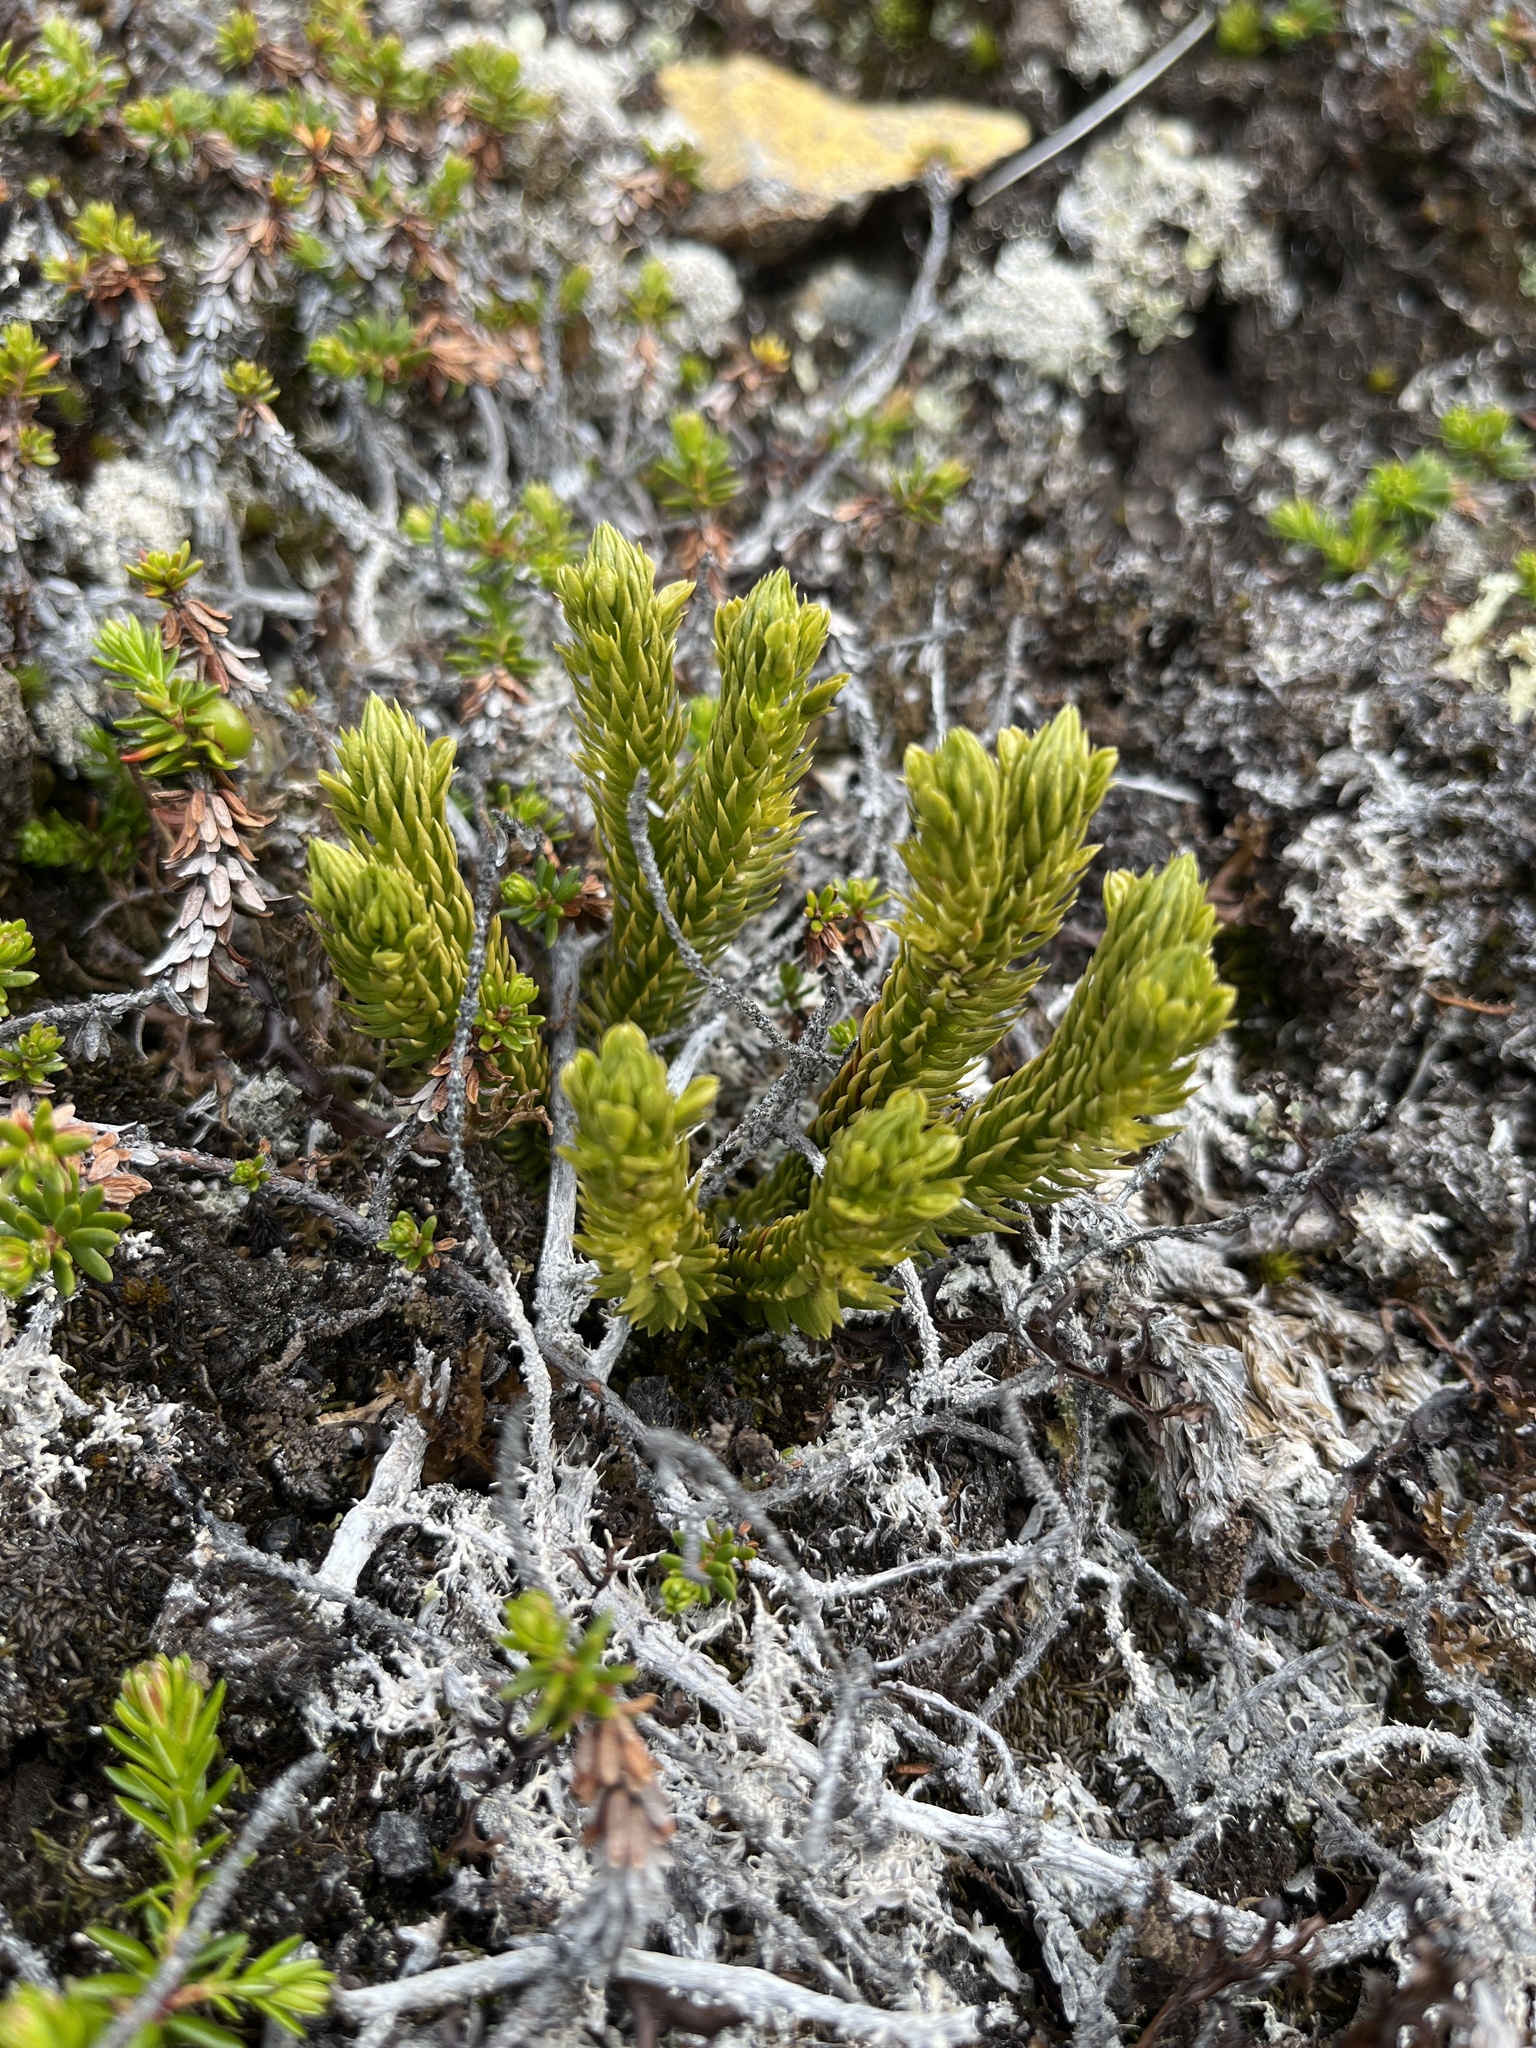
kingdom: Plantae
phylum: Tracheophyta
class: Lycopodiopsida
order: Lycopodiales
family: Lycopodiaceae
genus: Huperzia
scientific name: Huperzia selago
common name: Northern firmoss
